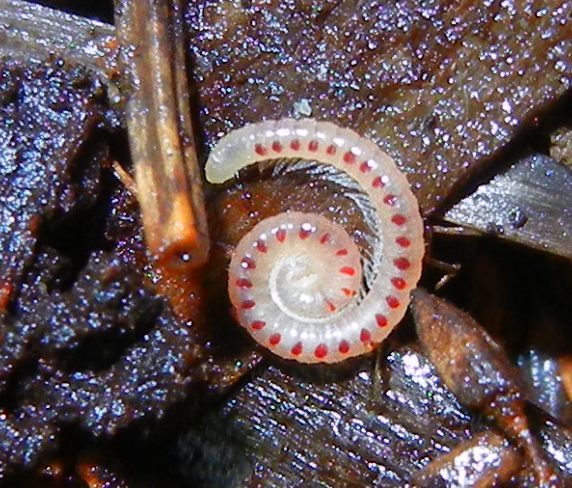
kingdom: Animalia
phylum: Arthropoda
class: Diplopoda
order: Julida
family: Blaniulidae
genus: Blaniulus
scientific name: Blaniulus guttulatus
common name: Spotted snake millipede
